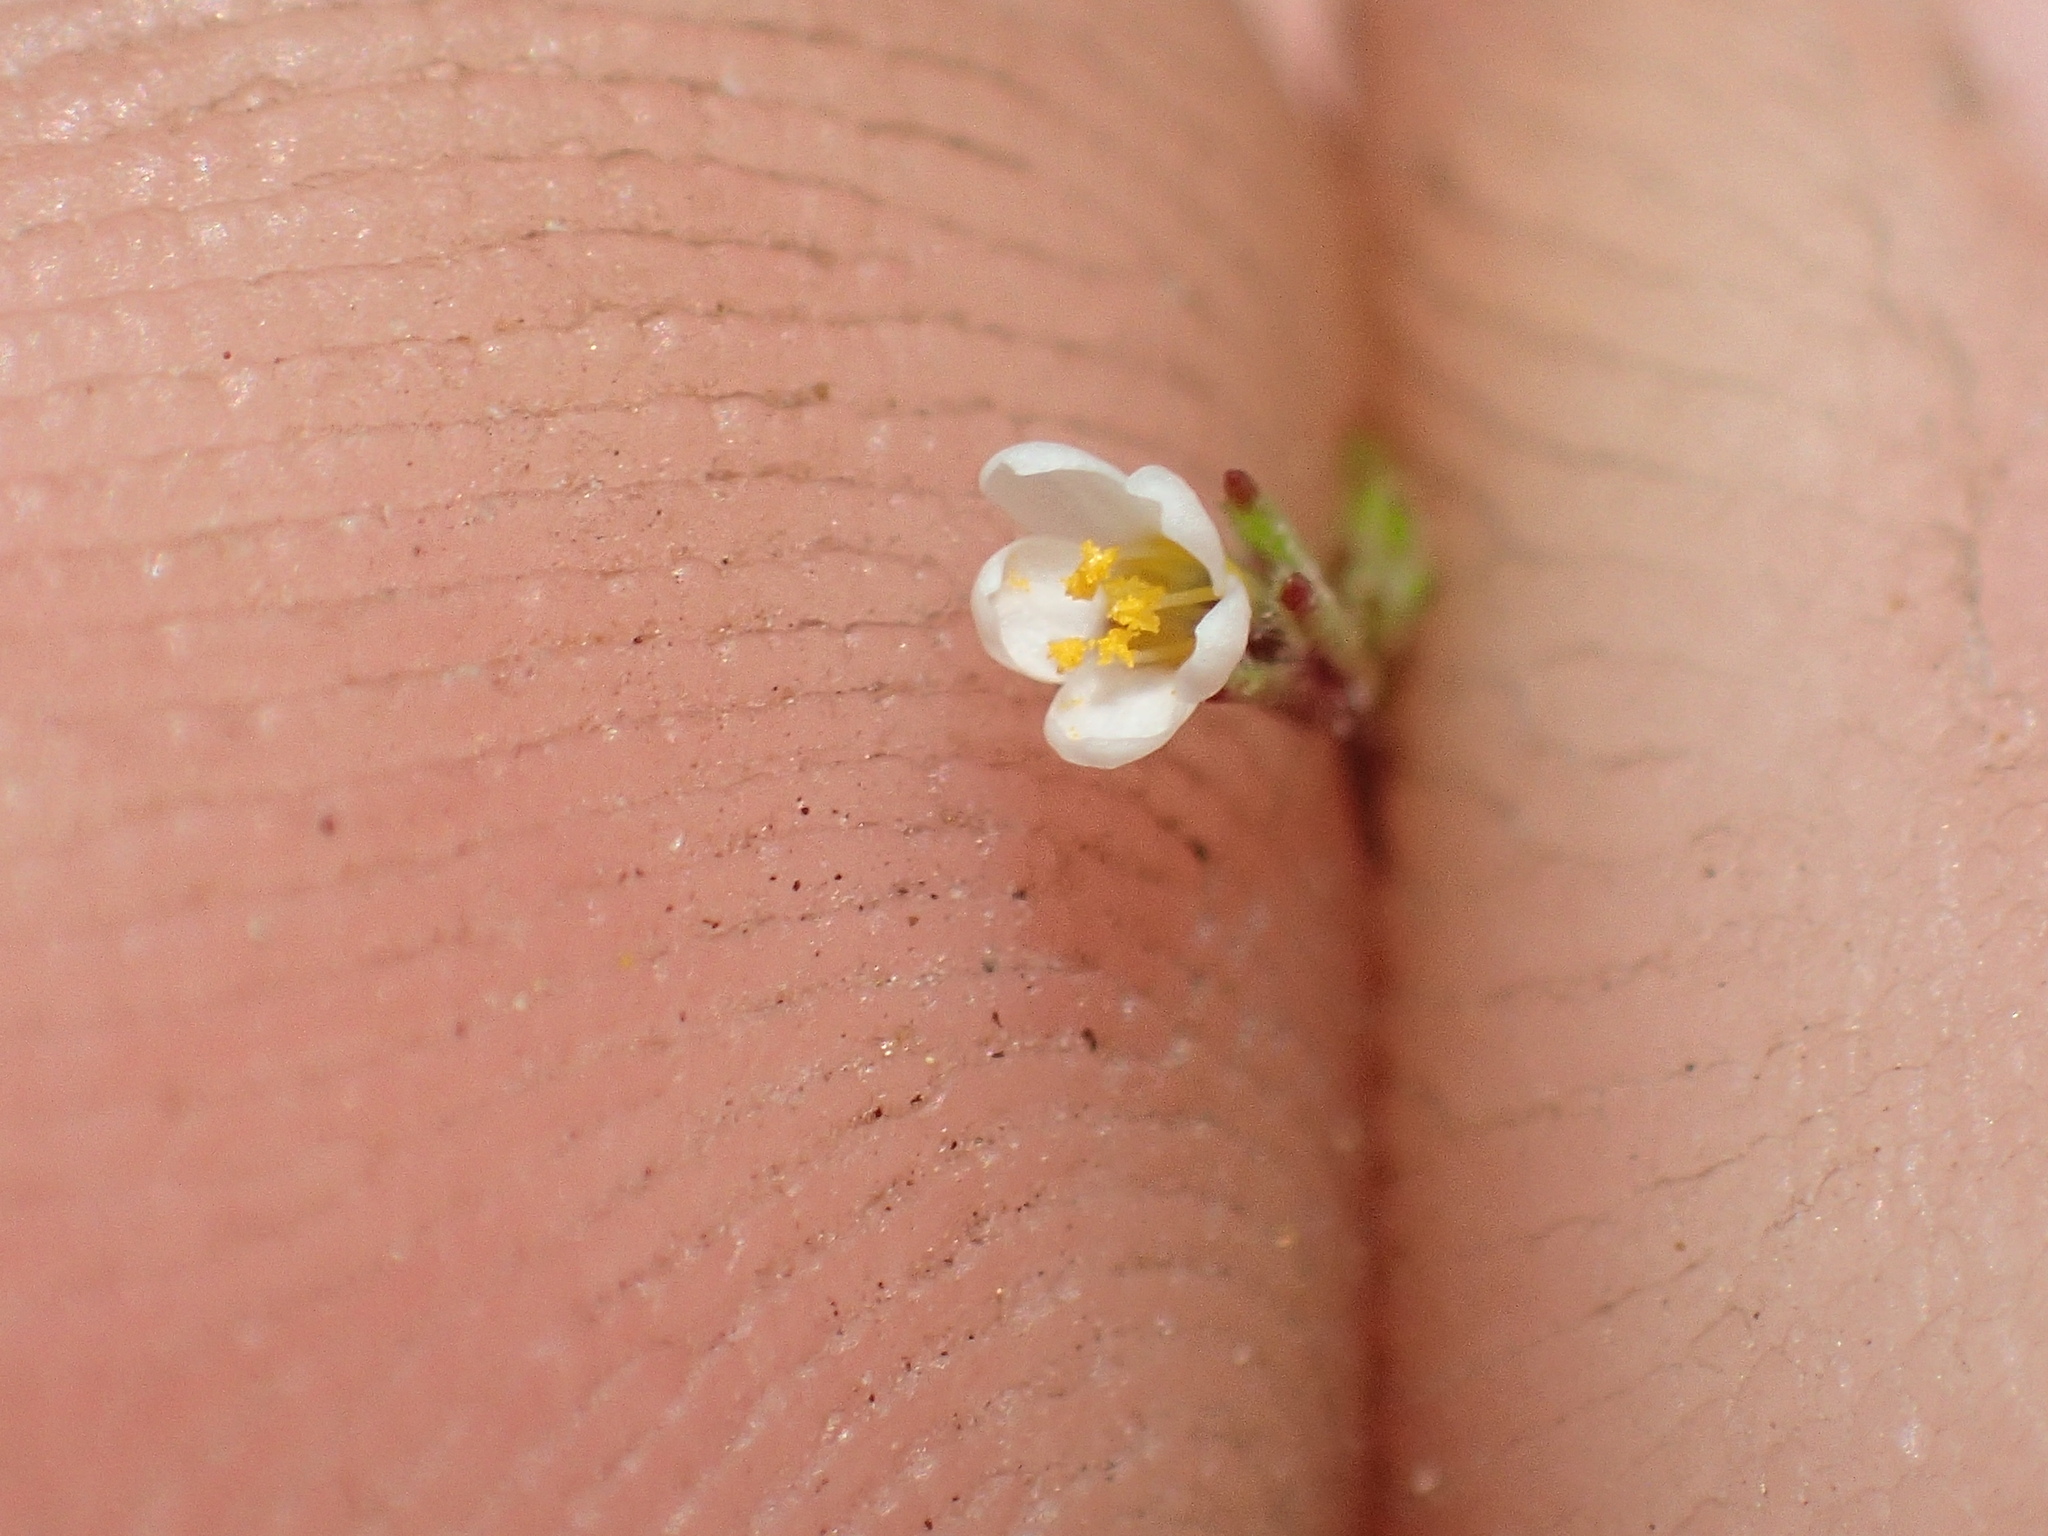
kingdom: Plantae
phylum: Tracheophyta
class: Magnoliopsida
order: Ericales
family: Polemoniaceae
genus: Leptosiphon
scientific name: Leptosiphon pygmaeus
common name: Pygmy linanthus
